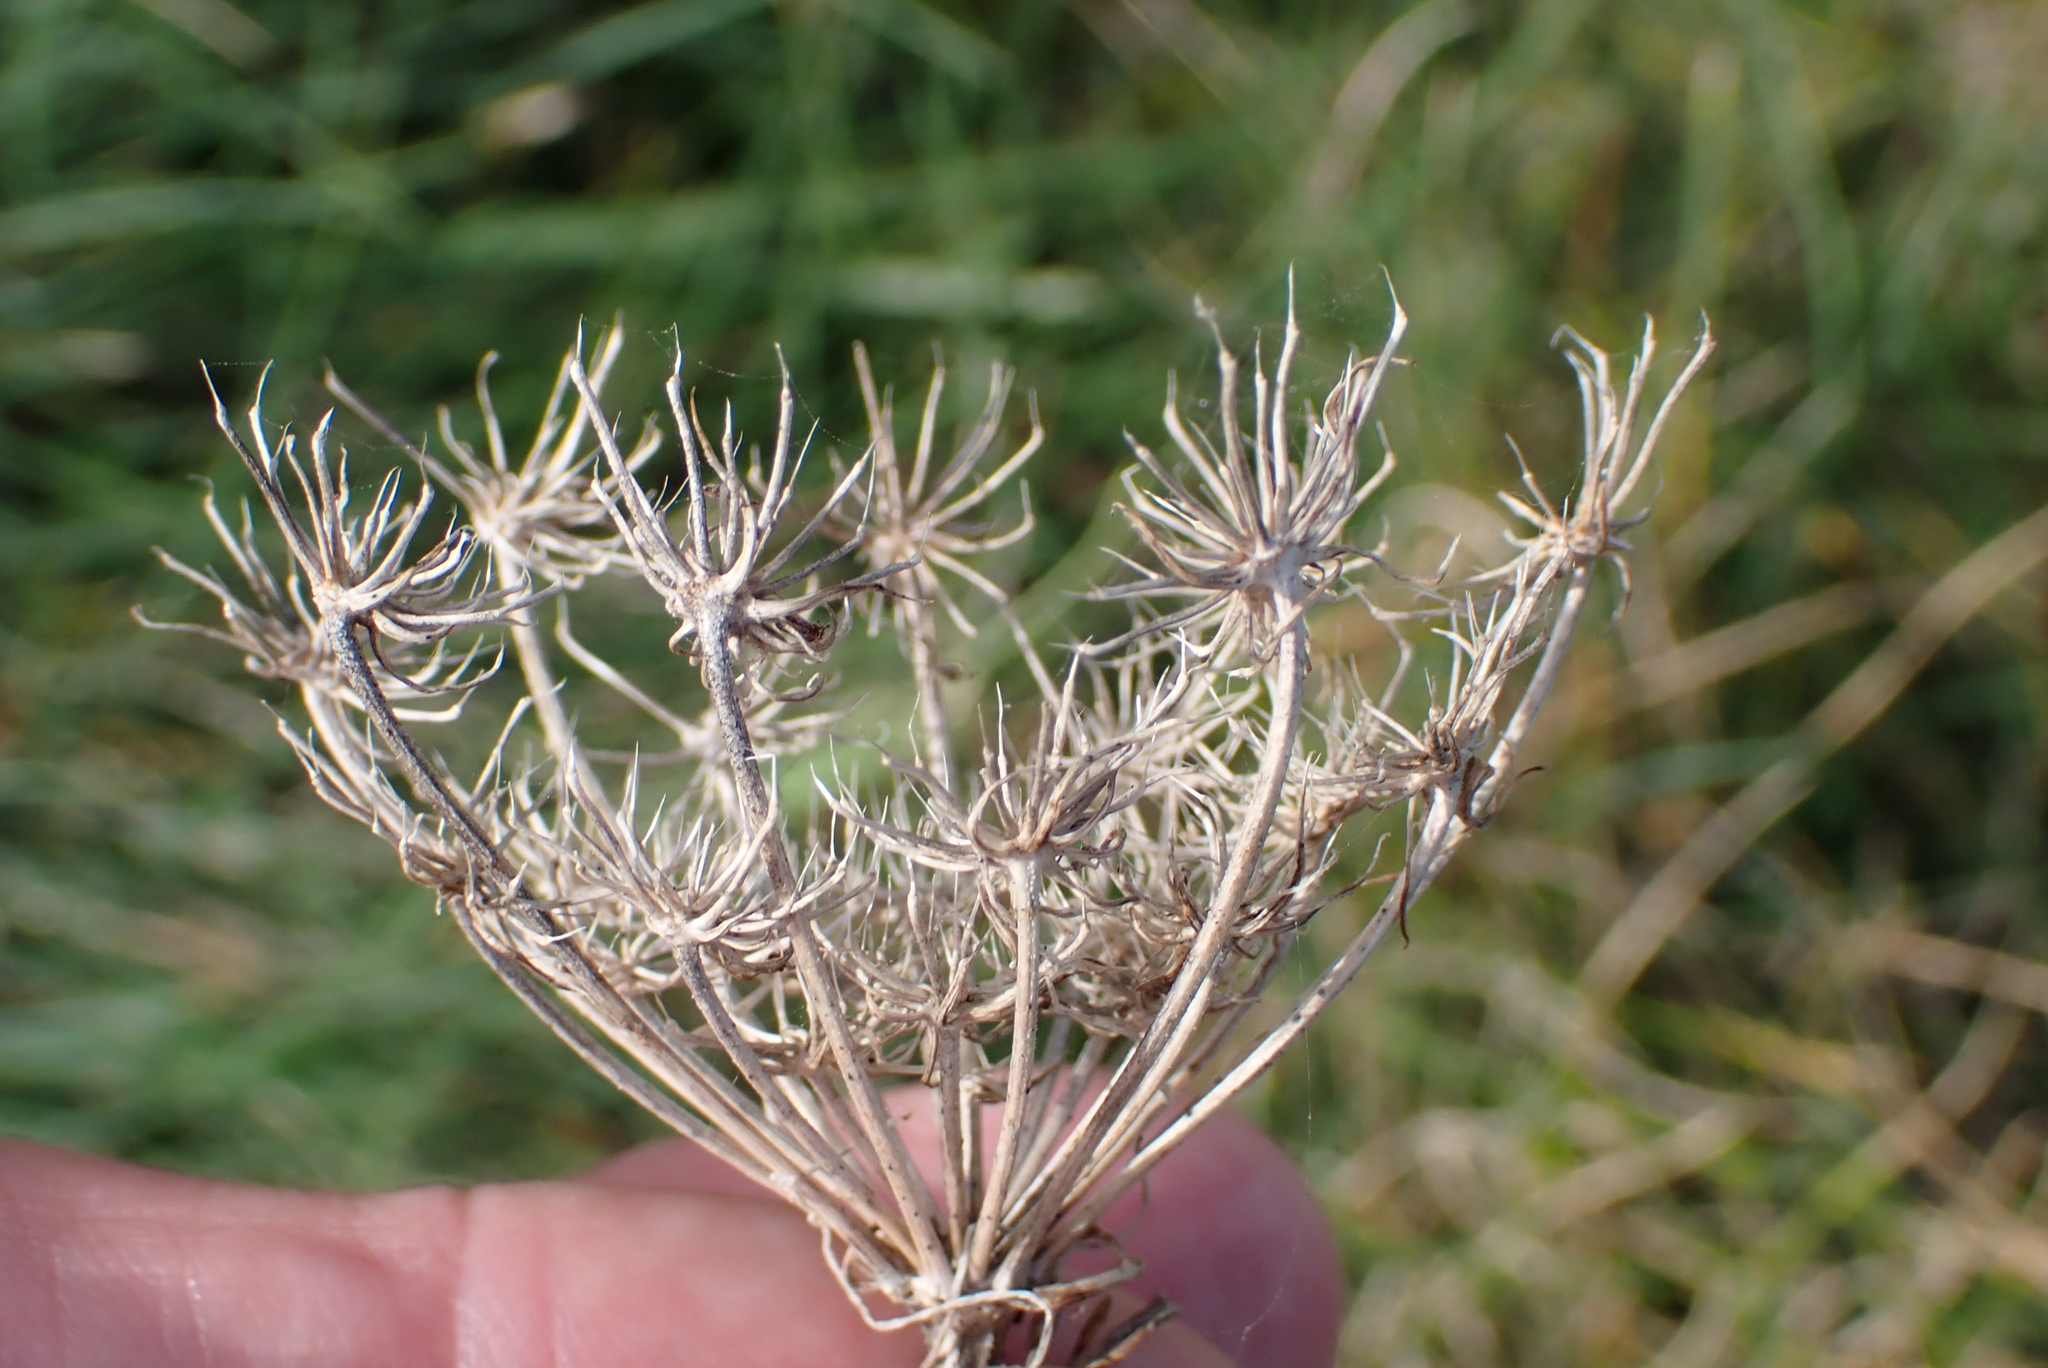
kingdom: Plantae
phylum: Tracheophyta
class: Magnoliopsida
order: Apiales
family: Apiaceae
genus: Daucus
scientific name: Daucus carota
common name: Wild carrot
